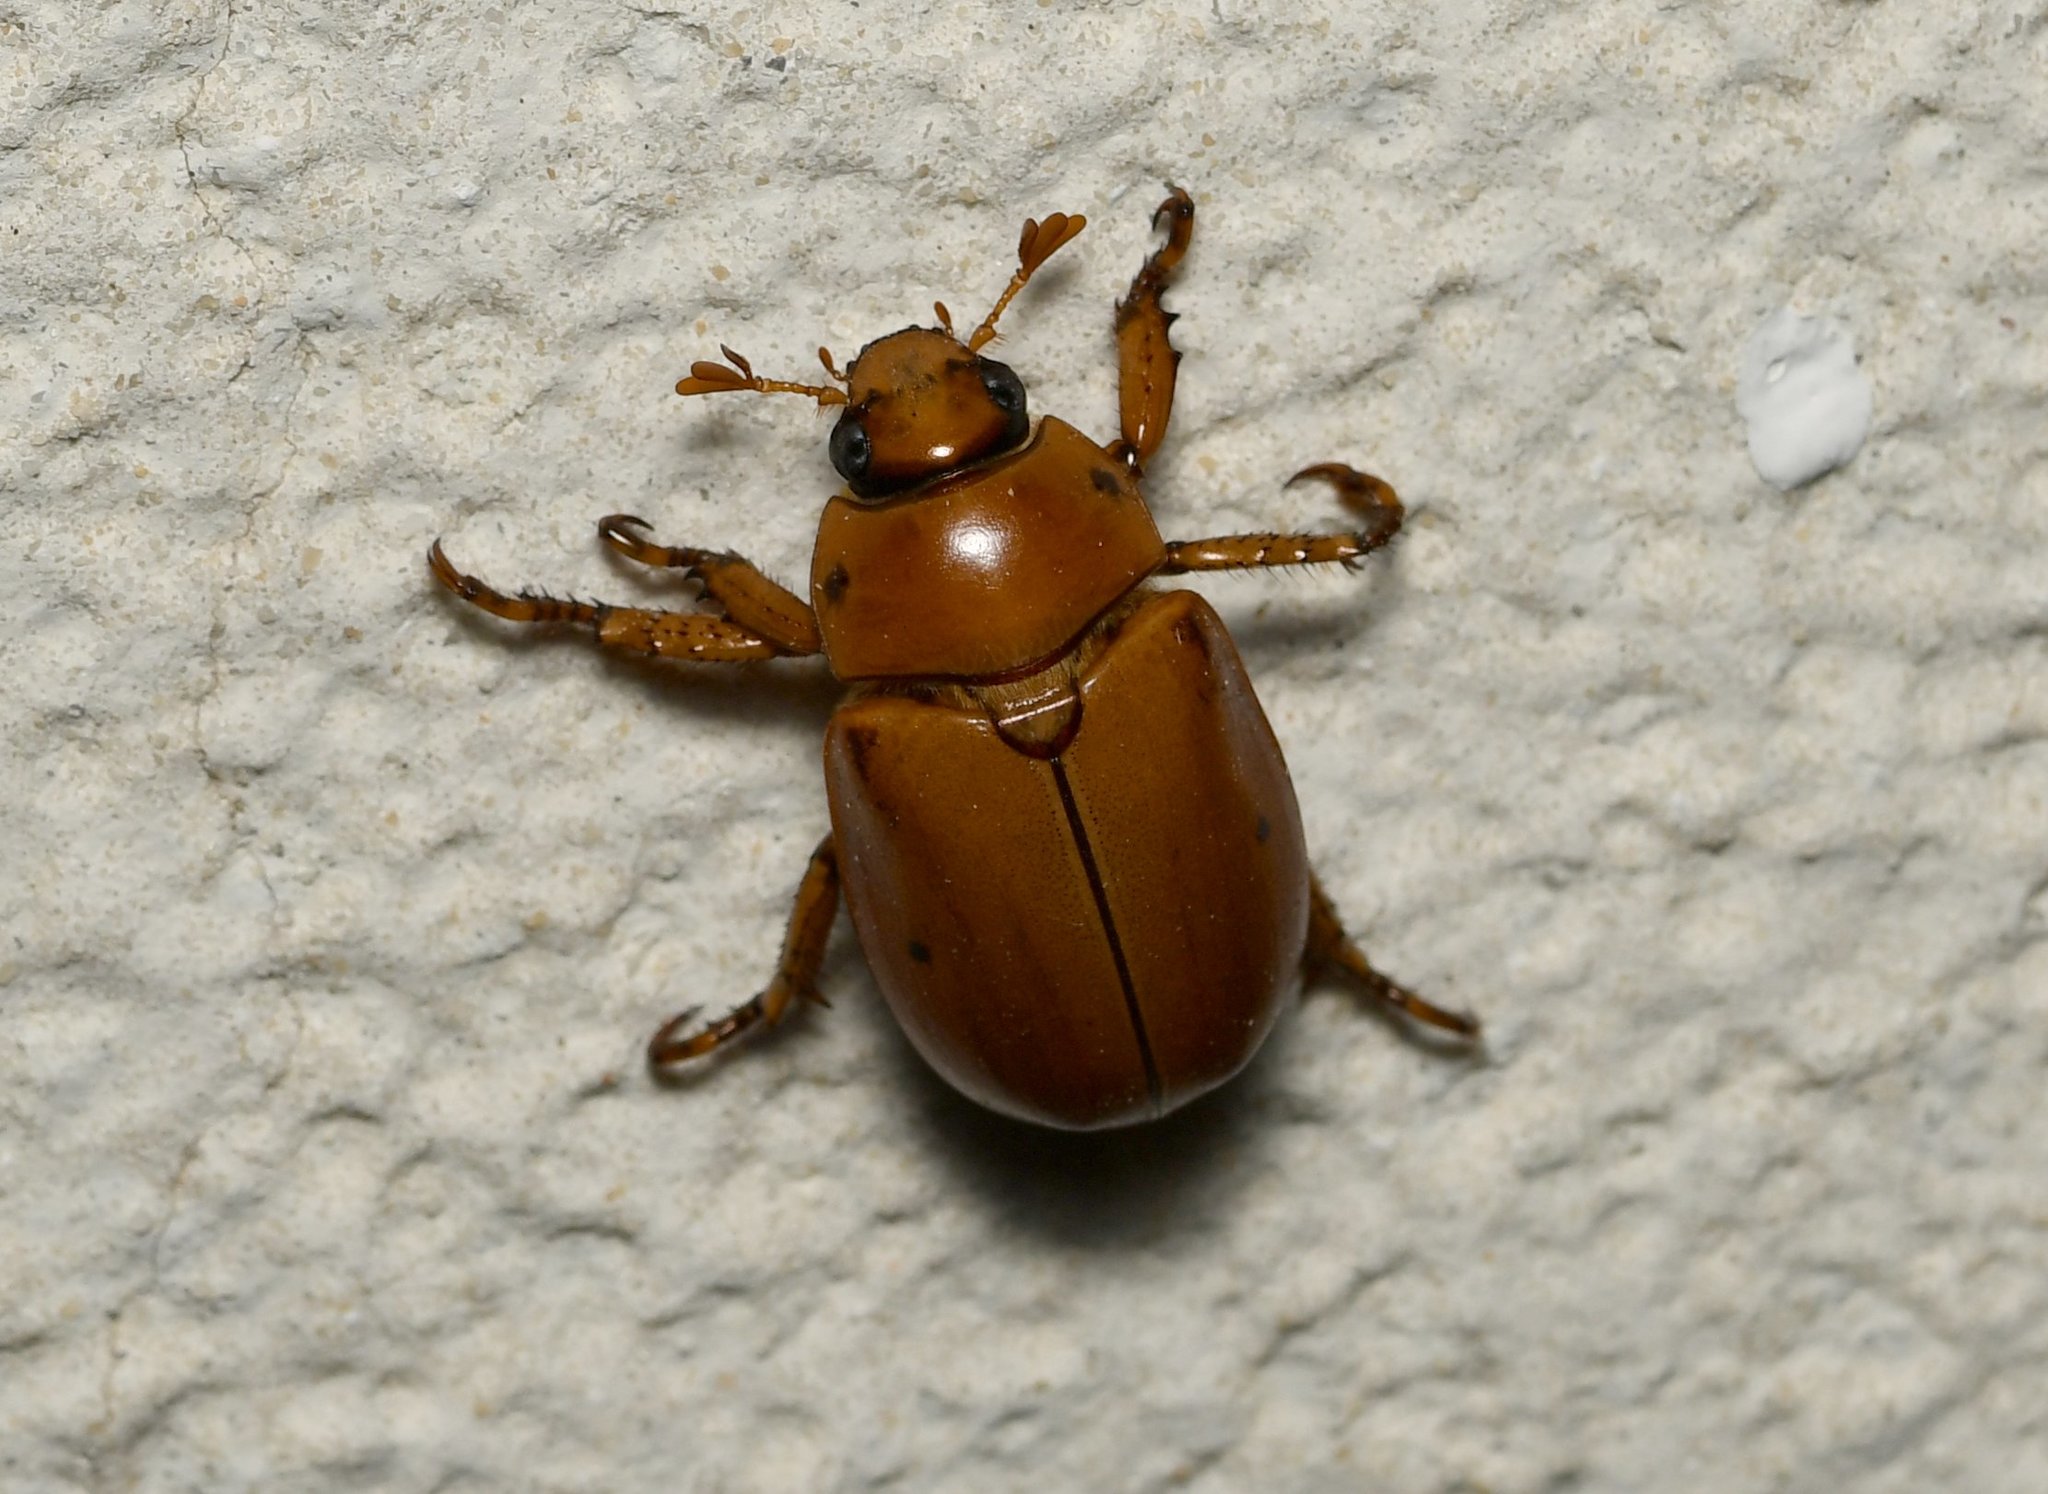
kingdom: Animalia
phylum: Arthropoda
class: Insecta
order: Coleoptera
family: Scarabaeidae
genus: Pelidnota
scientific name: Pelidnota punctata
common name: Grapevine beetle
